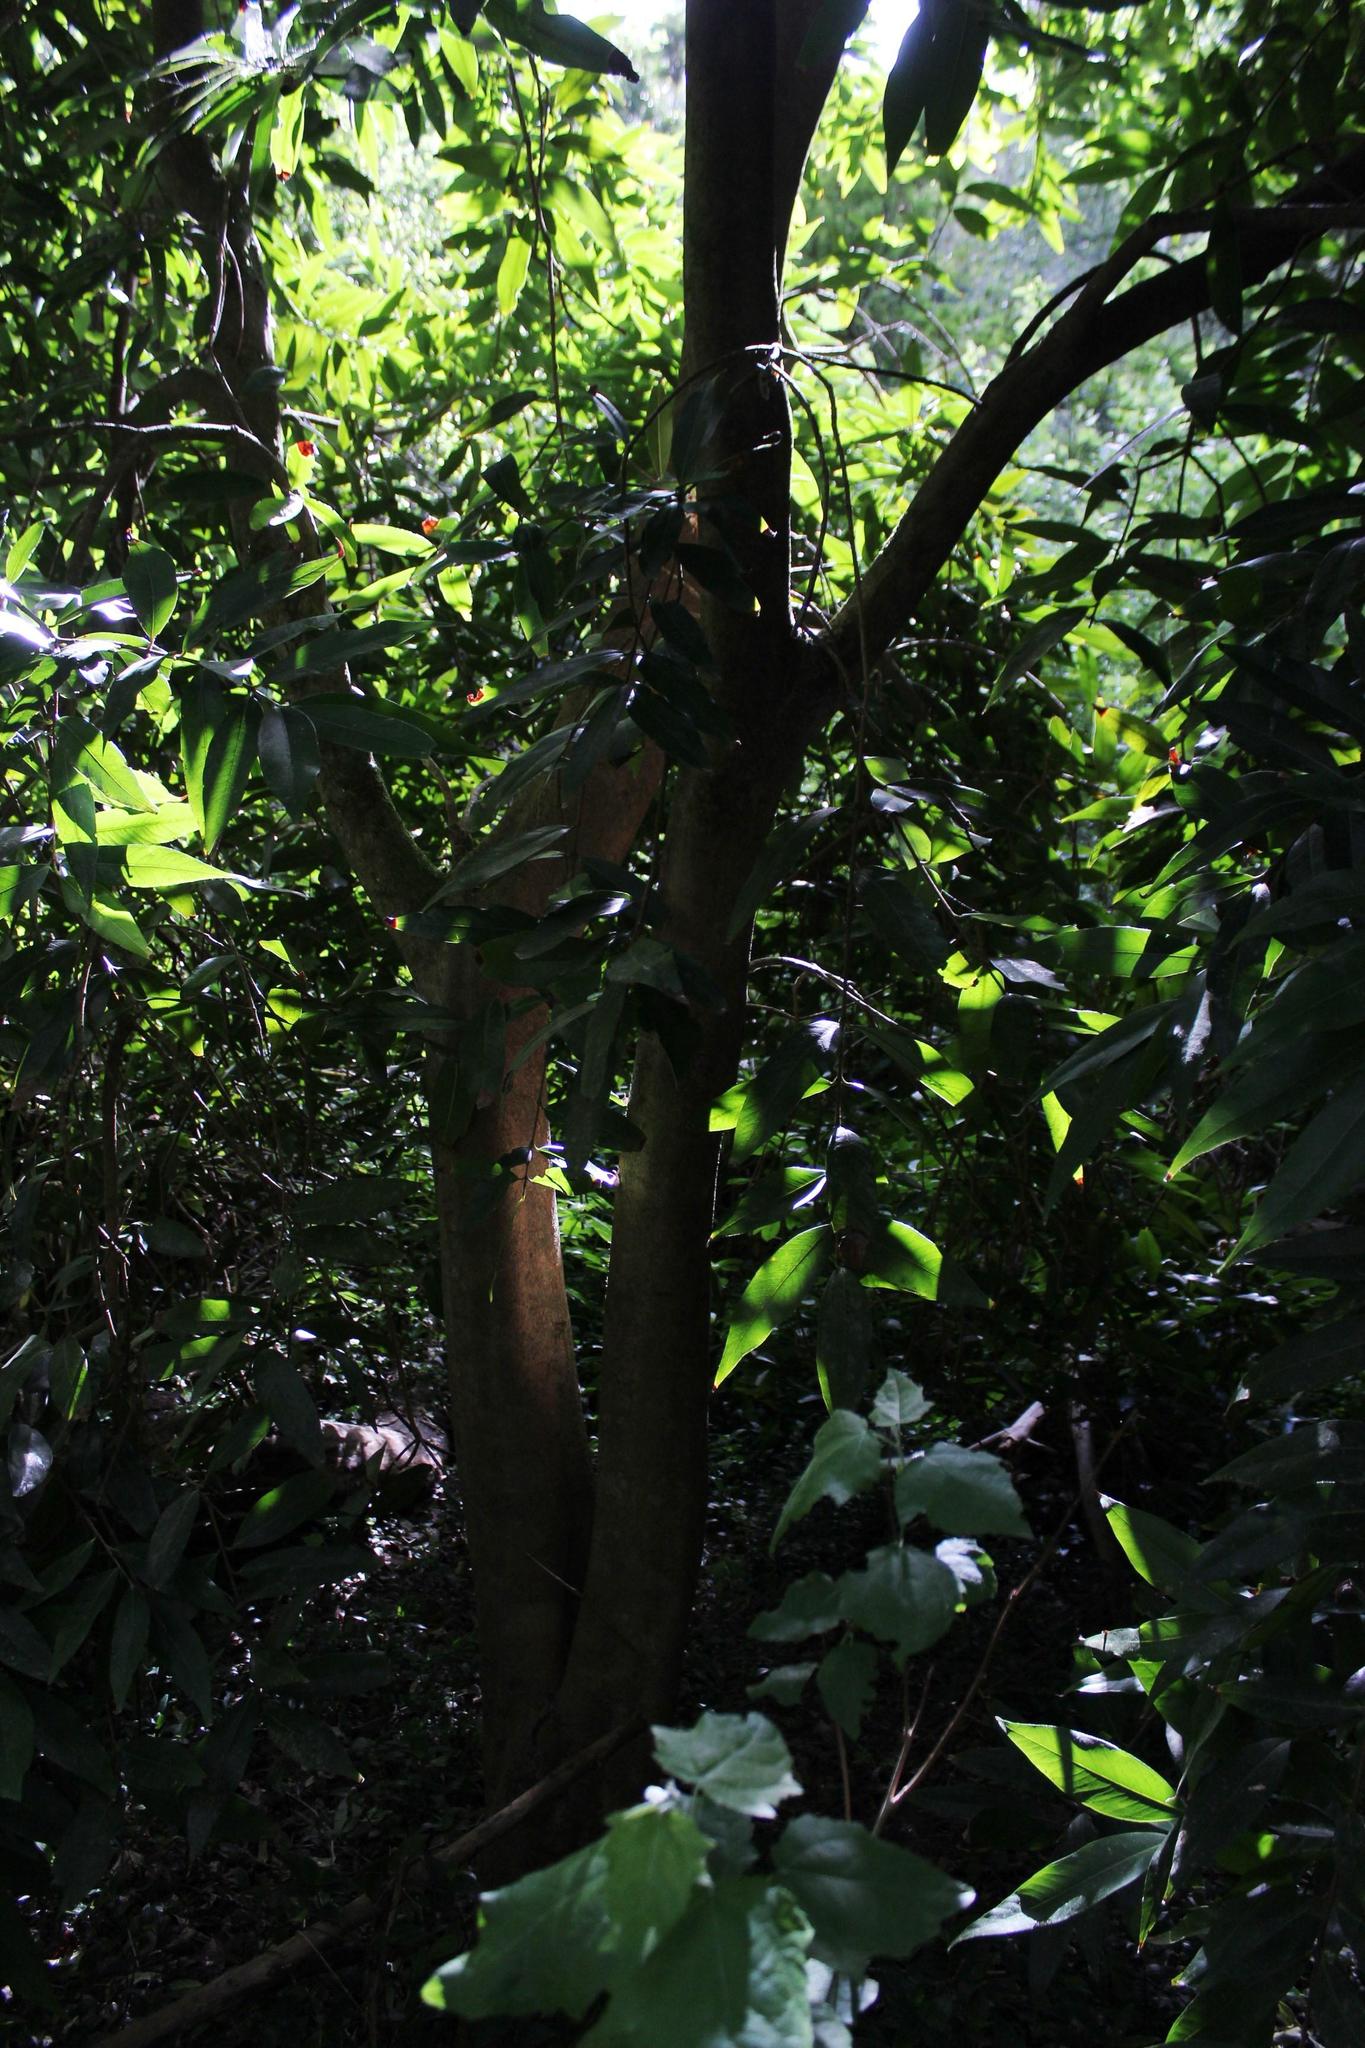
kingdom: Plantae
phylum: Tracheophyta
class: Magnoliopsida
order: Myrtales
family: Myrtaceae
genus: Syzygium
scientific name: Syzygium jambos
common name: Malabar plum
